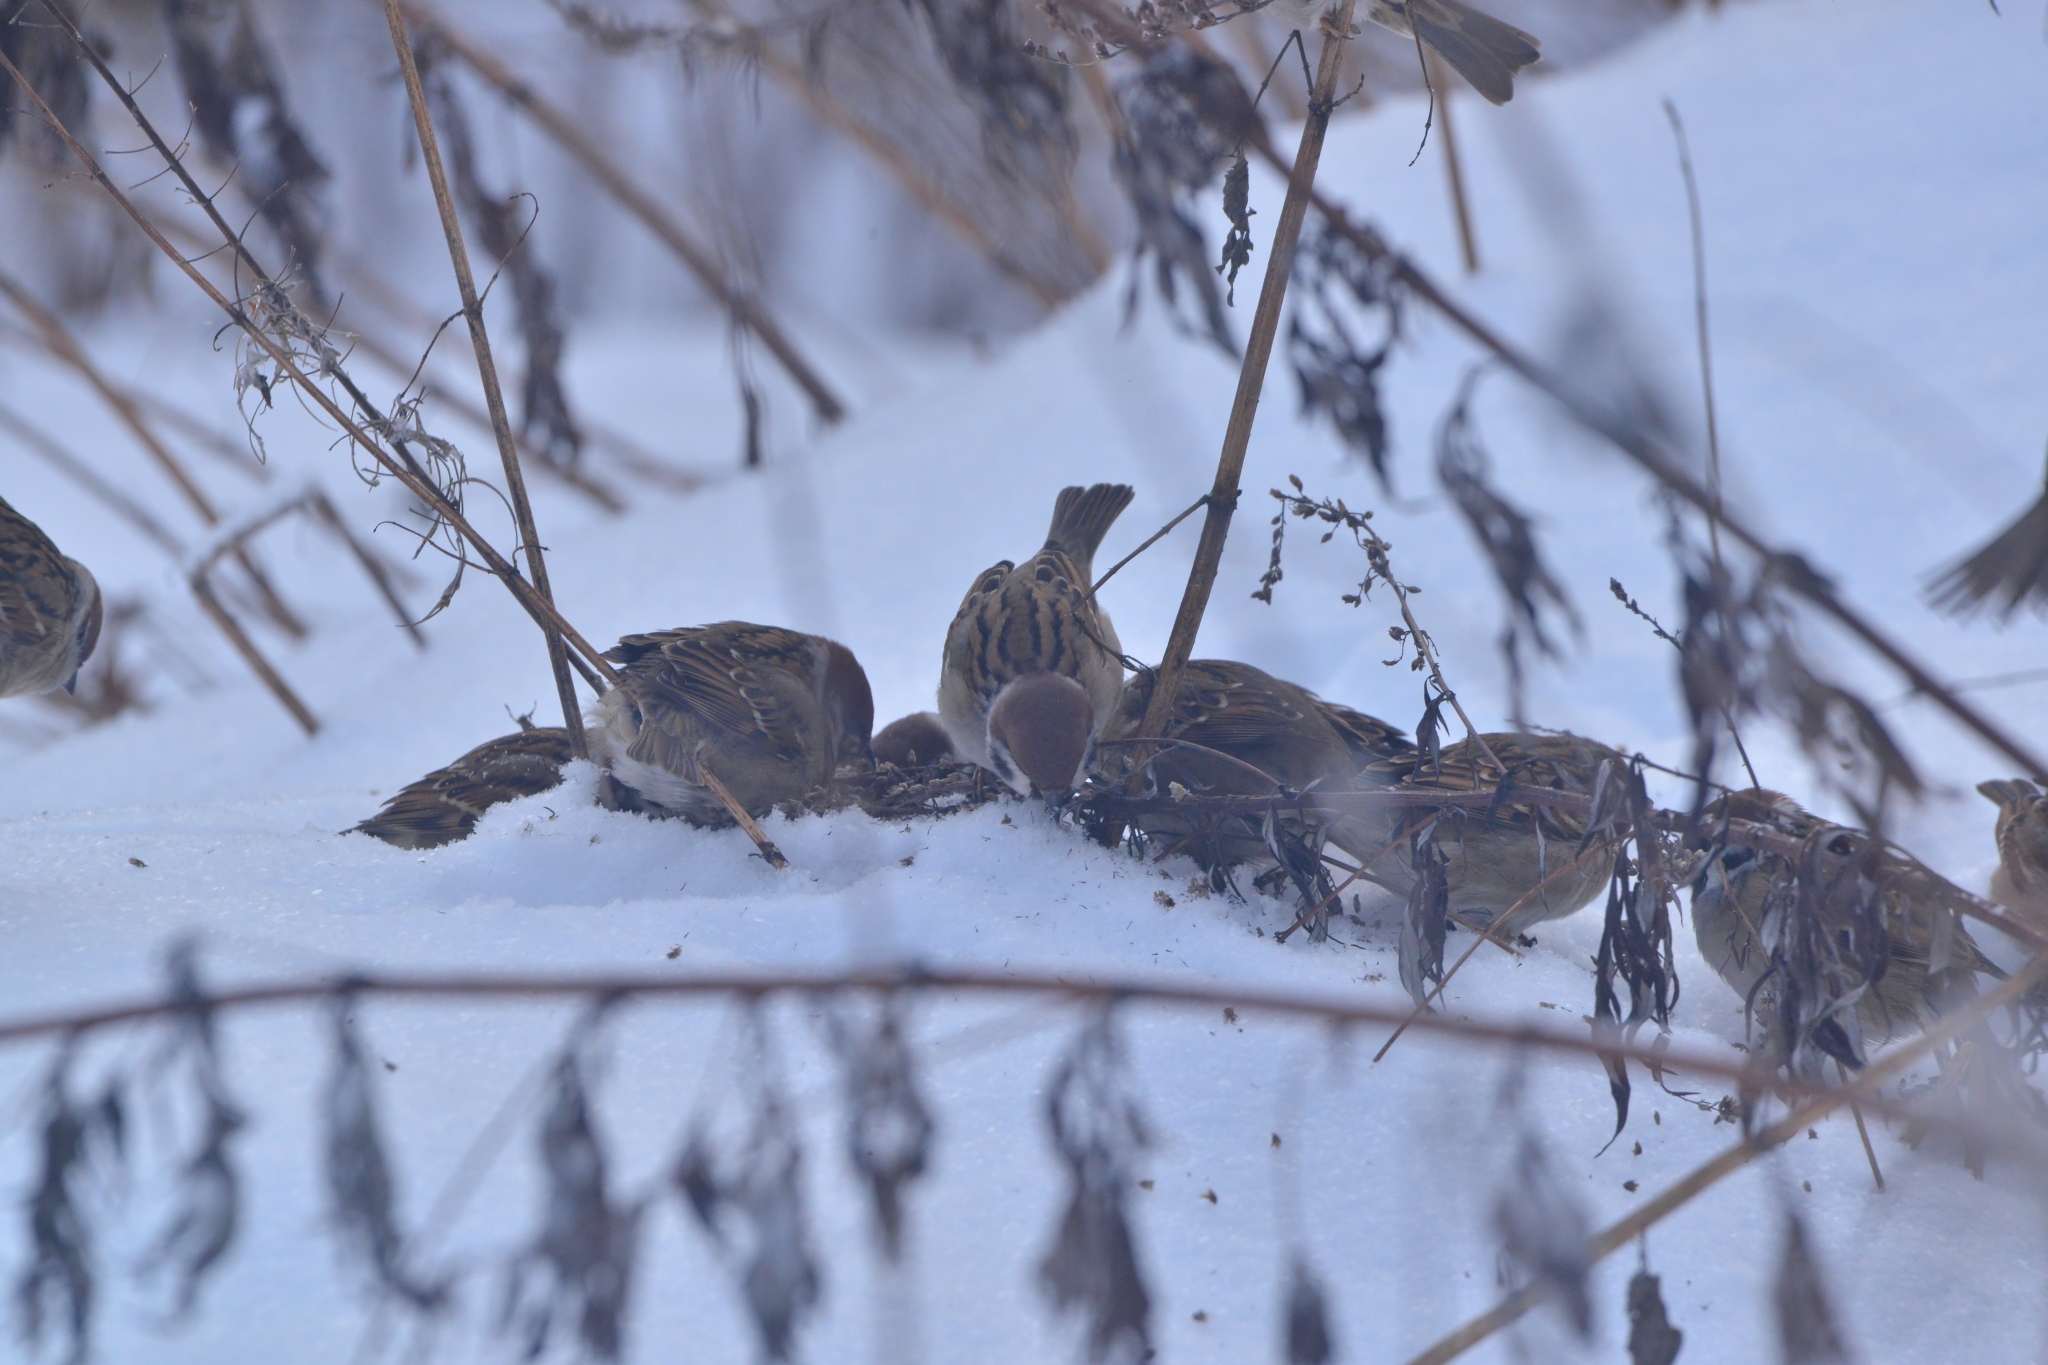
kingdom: Animalia
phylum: Chordata
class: Aves
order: Passeriformes
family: Passeridae
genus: Passer
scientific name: Passer montanus
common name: Eurasian tree sparrow
